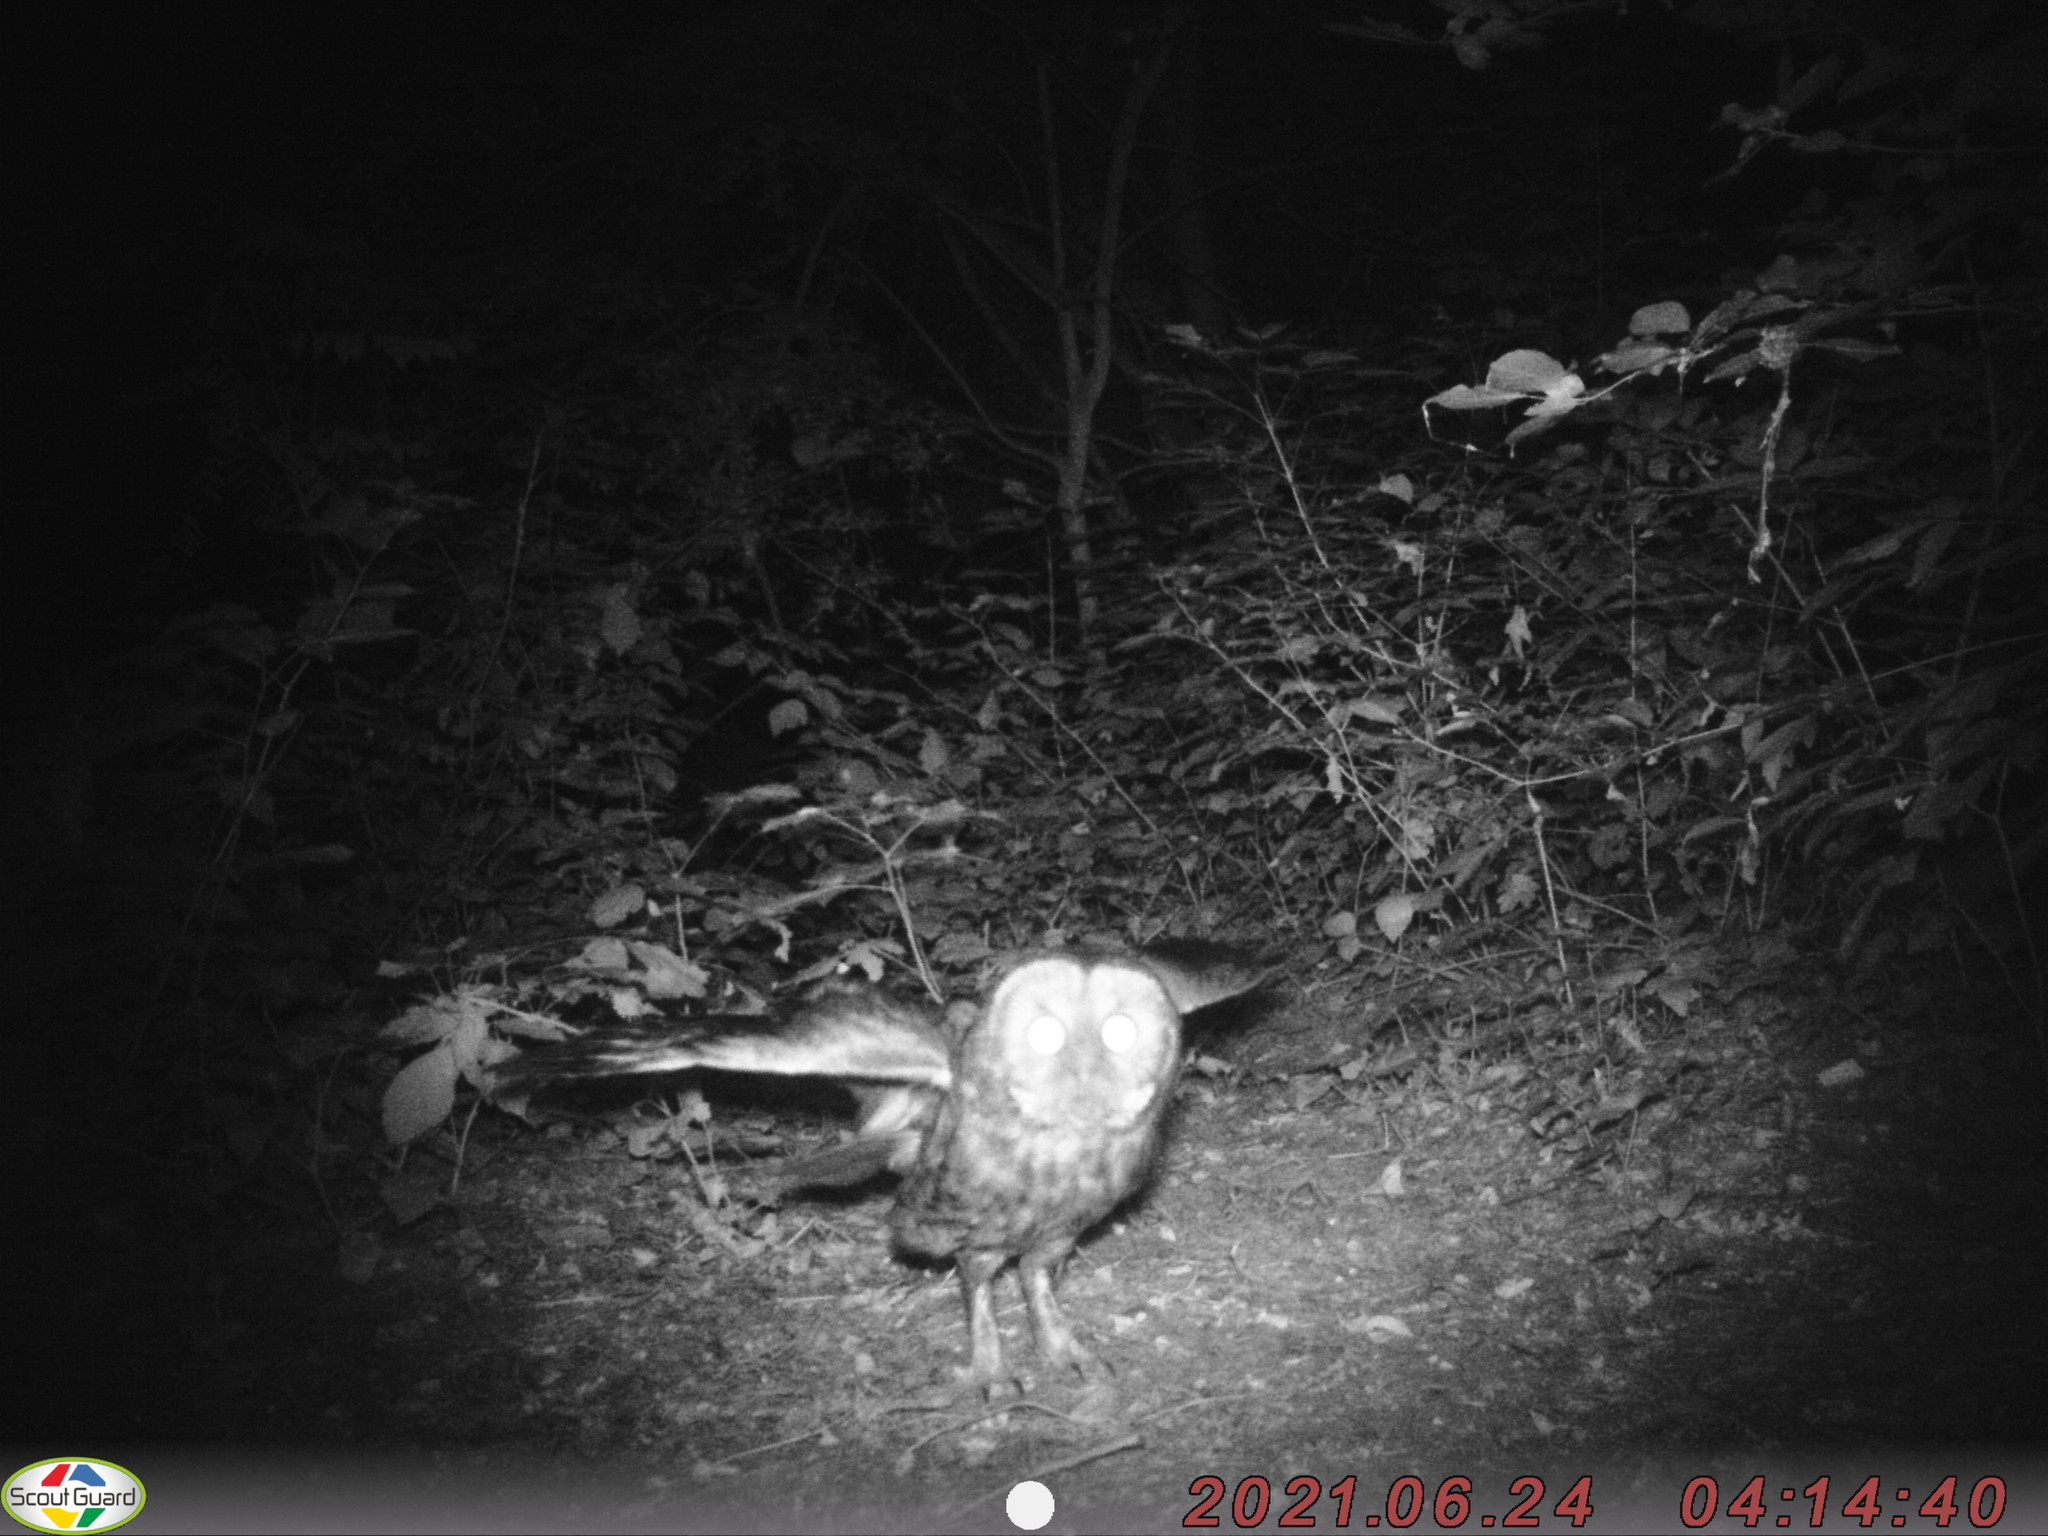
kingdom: Animalia
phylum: Chordata
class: Aves
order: Strigiformes
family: Strigidae
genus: Strix
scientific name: Strix aluco
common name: Tawny owl
